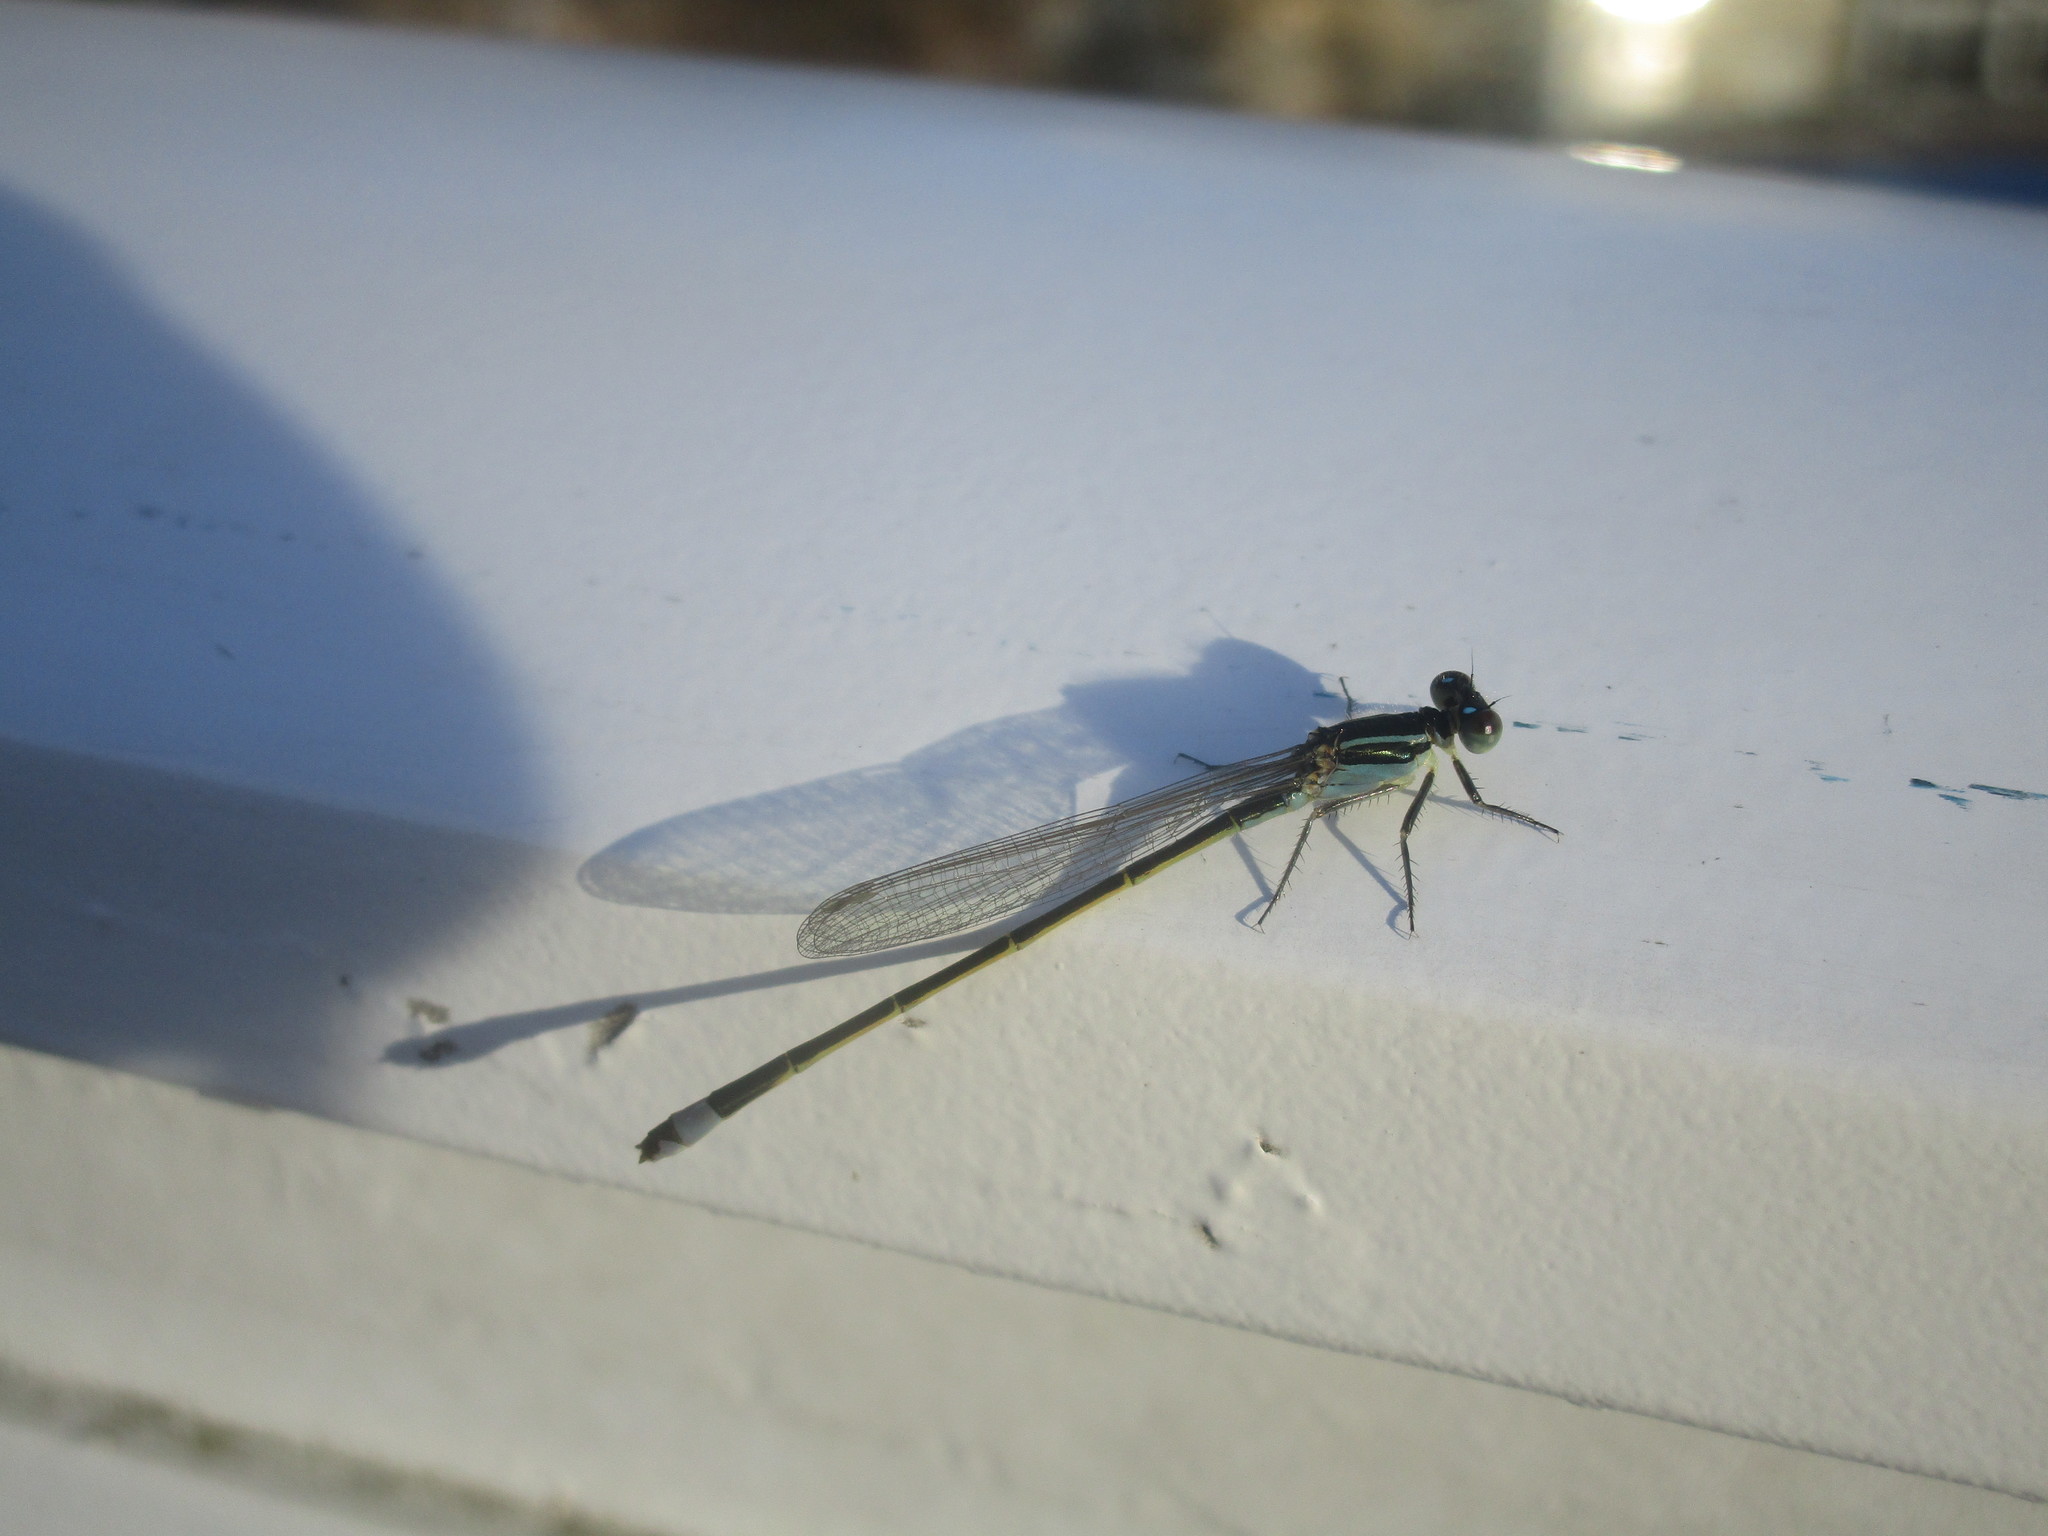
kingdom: Animalia
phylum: Arthropoda
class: Insecta
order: Odonata
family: Coenagrionidae
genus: Ischnura
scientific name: Ischnura ramburii
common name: Rambur's forktail
